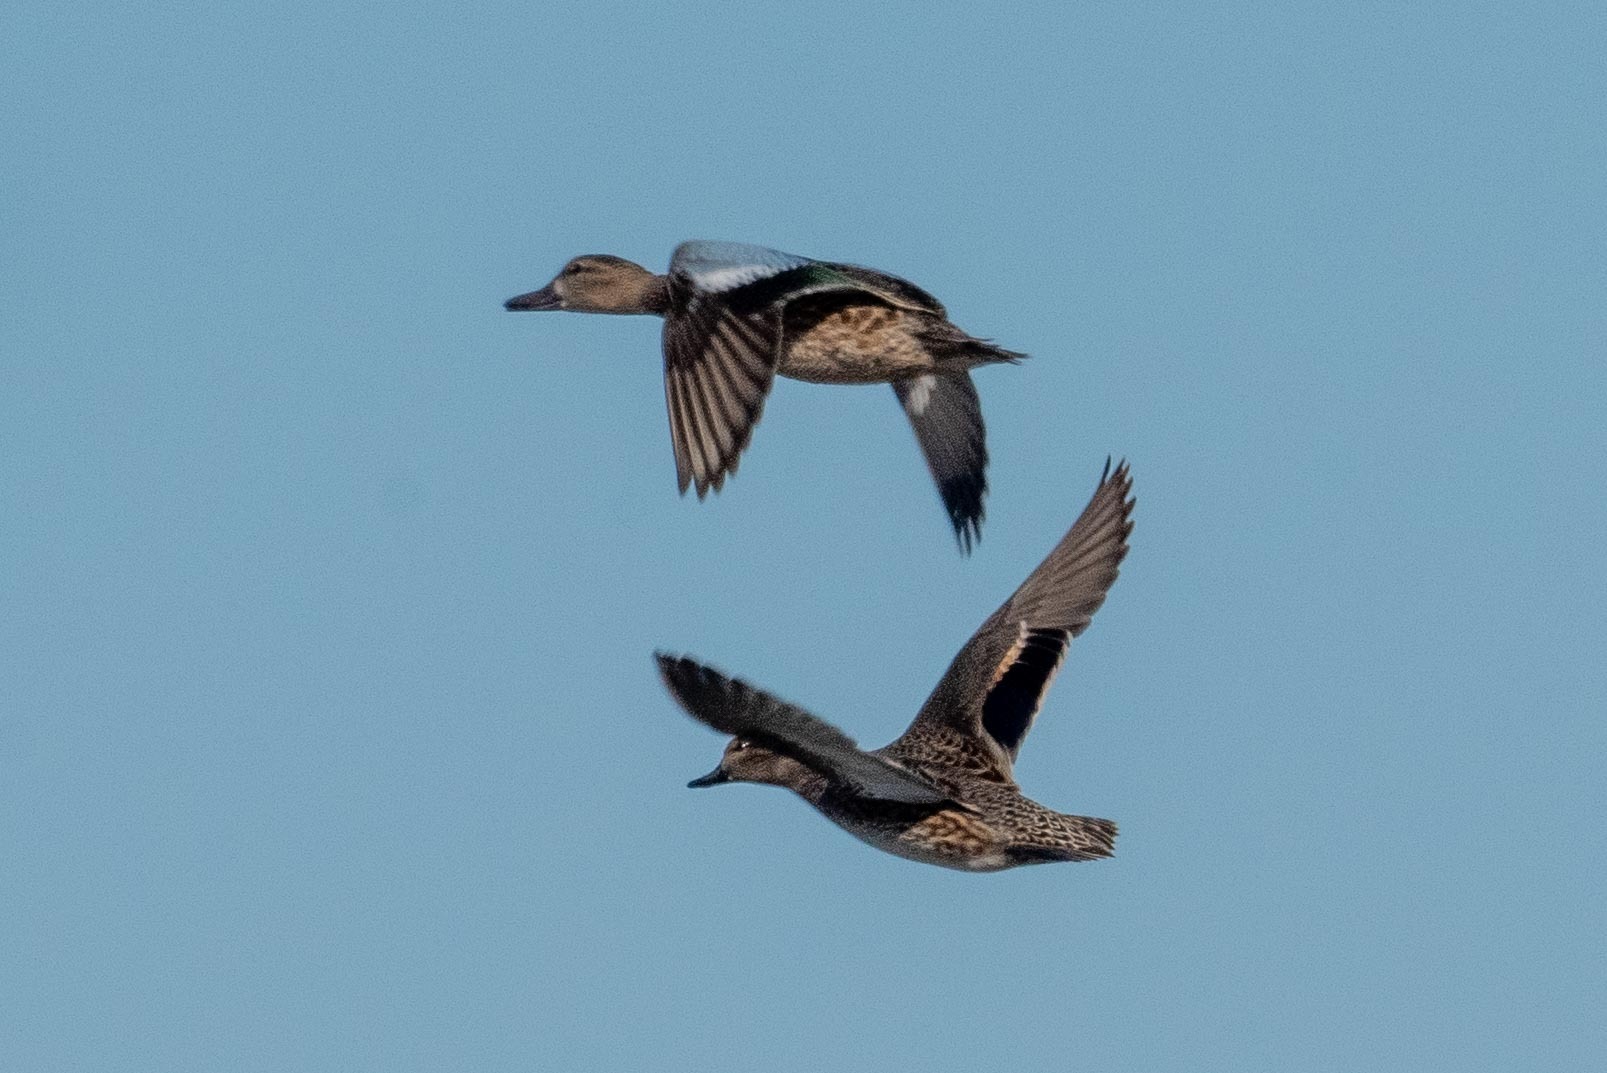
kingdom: Animalia
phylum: Chordata
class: Aves
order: Anseriformes
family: Anatidae
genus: Anas
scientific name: Anas crecca
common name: Eurasian teal
